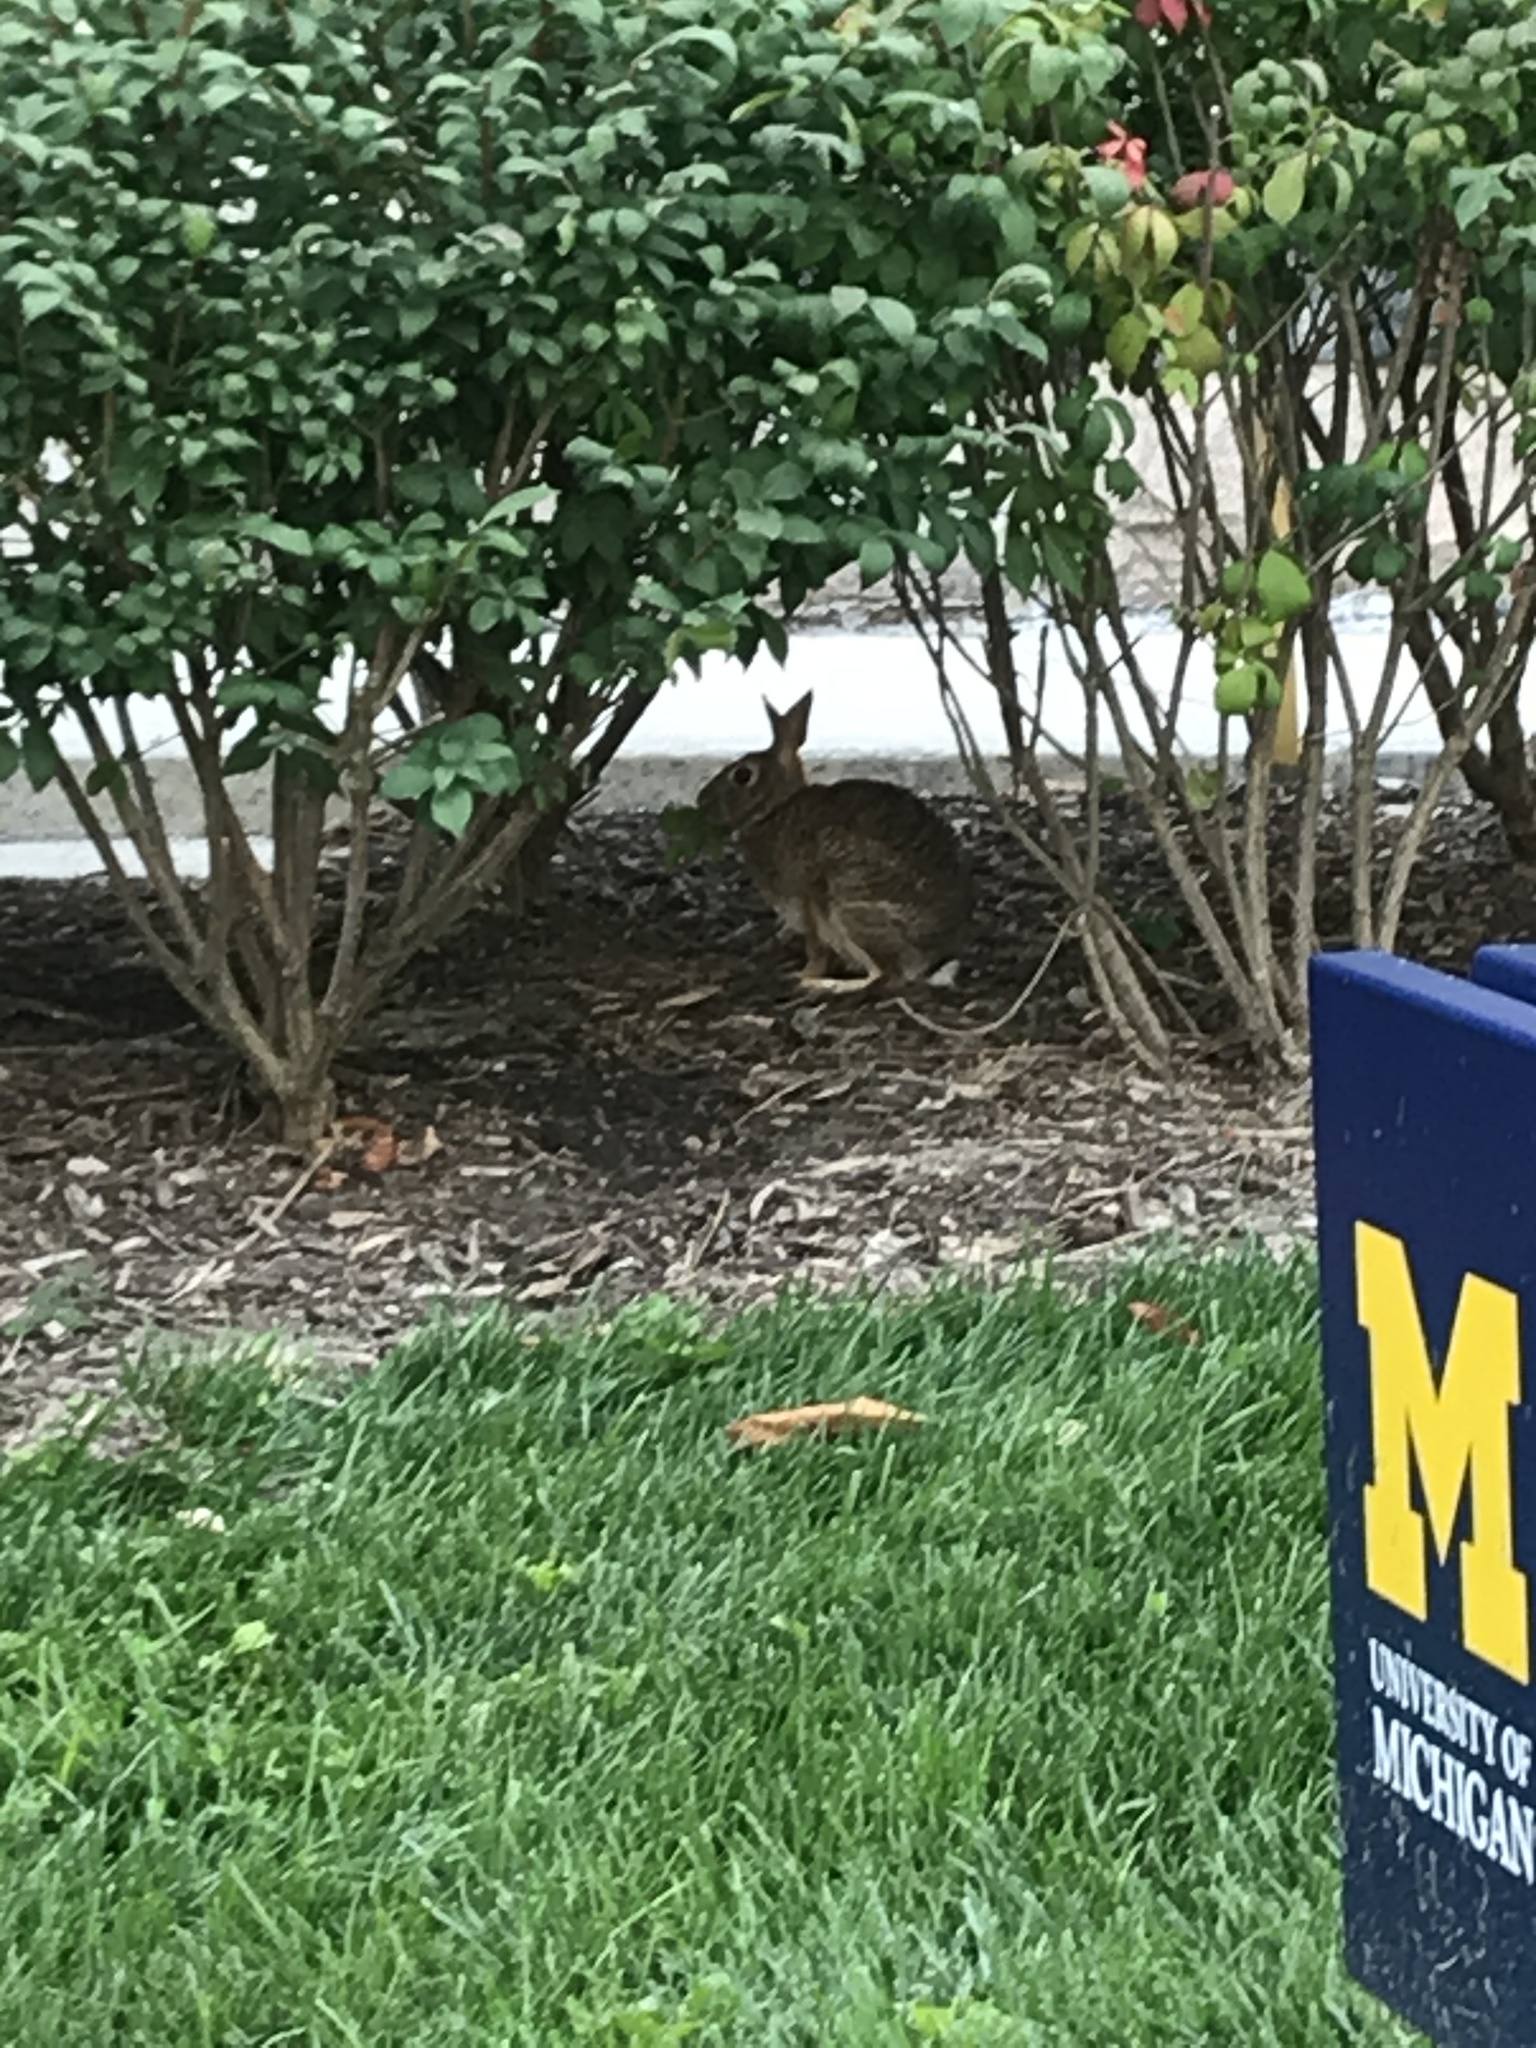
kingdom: Animalia
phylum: Chordata
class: Mammalia
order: Lagomorpha
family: Leporidae
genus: Sylvilagus
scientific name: Sylvilagus floridanus
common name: Eastern cottontail
